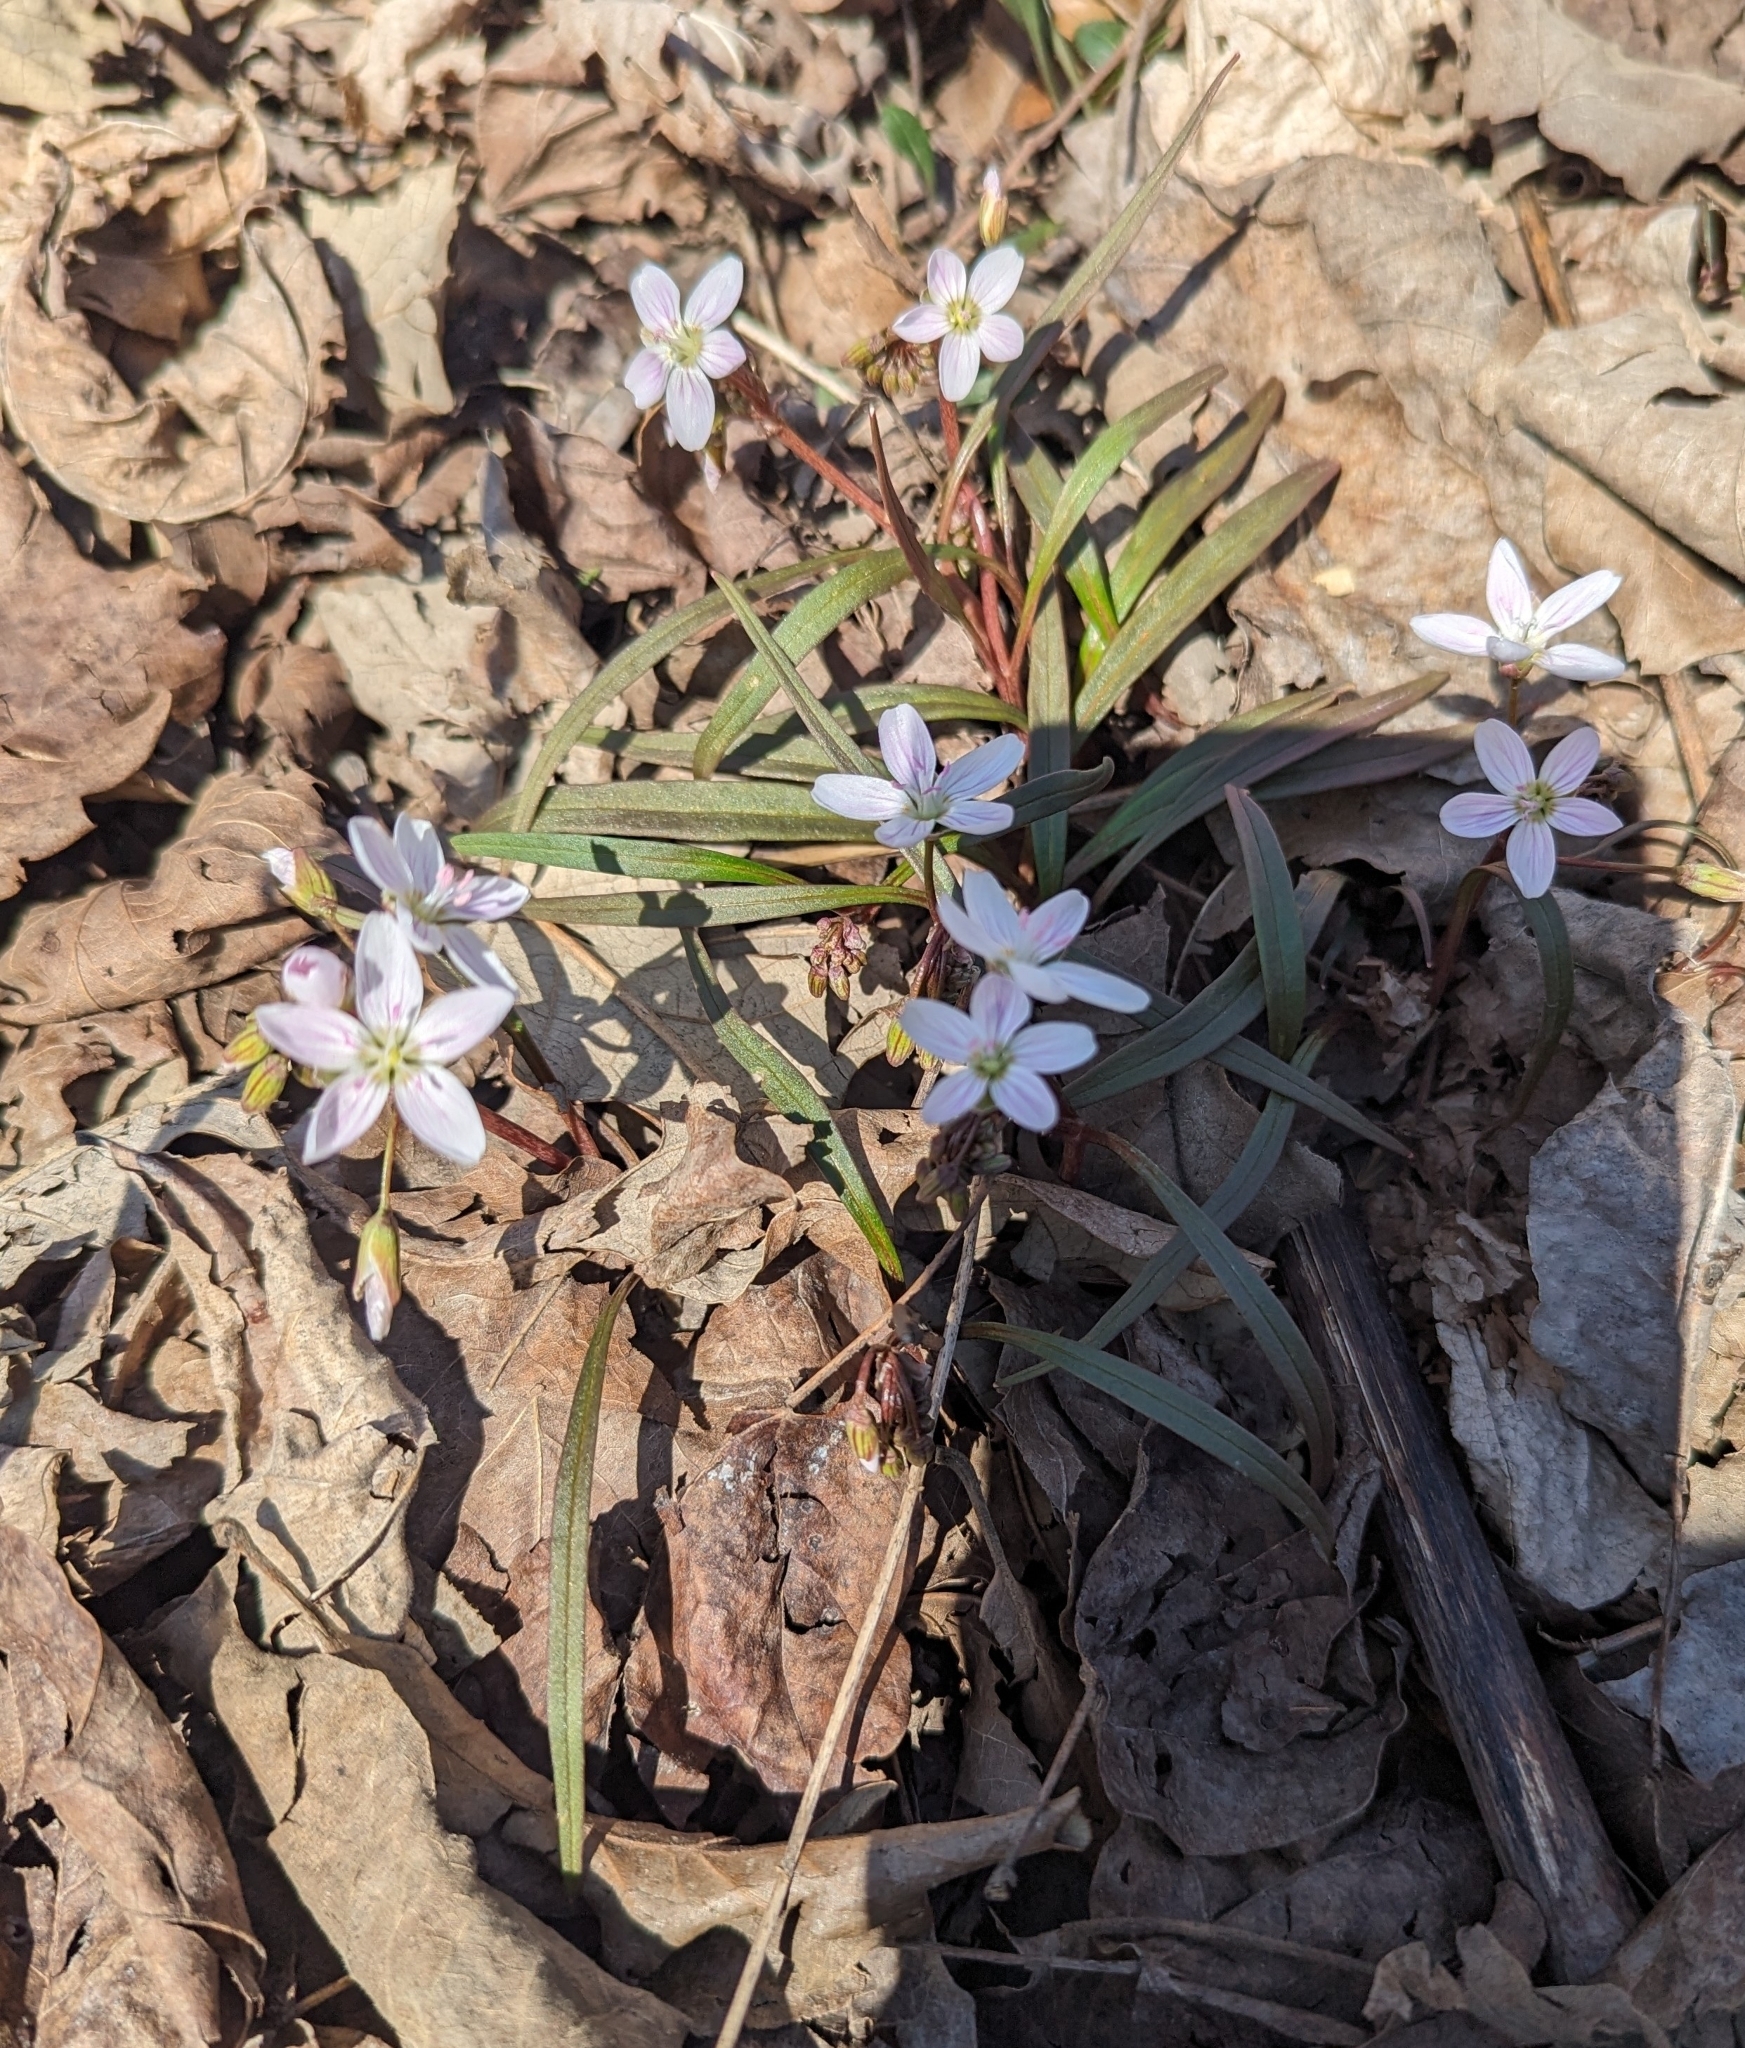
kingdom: Plantae
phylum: Tracheophyta
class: Magnoliopsida
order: Caryophyllales
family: Montiaceae
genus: Claytonia
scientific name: Claytonia virginica
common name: Virginia springbeauty
